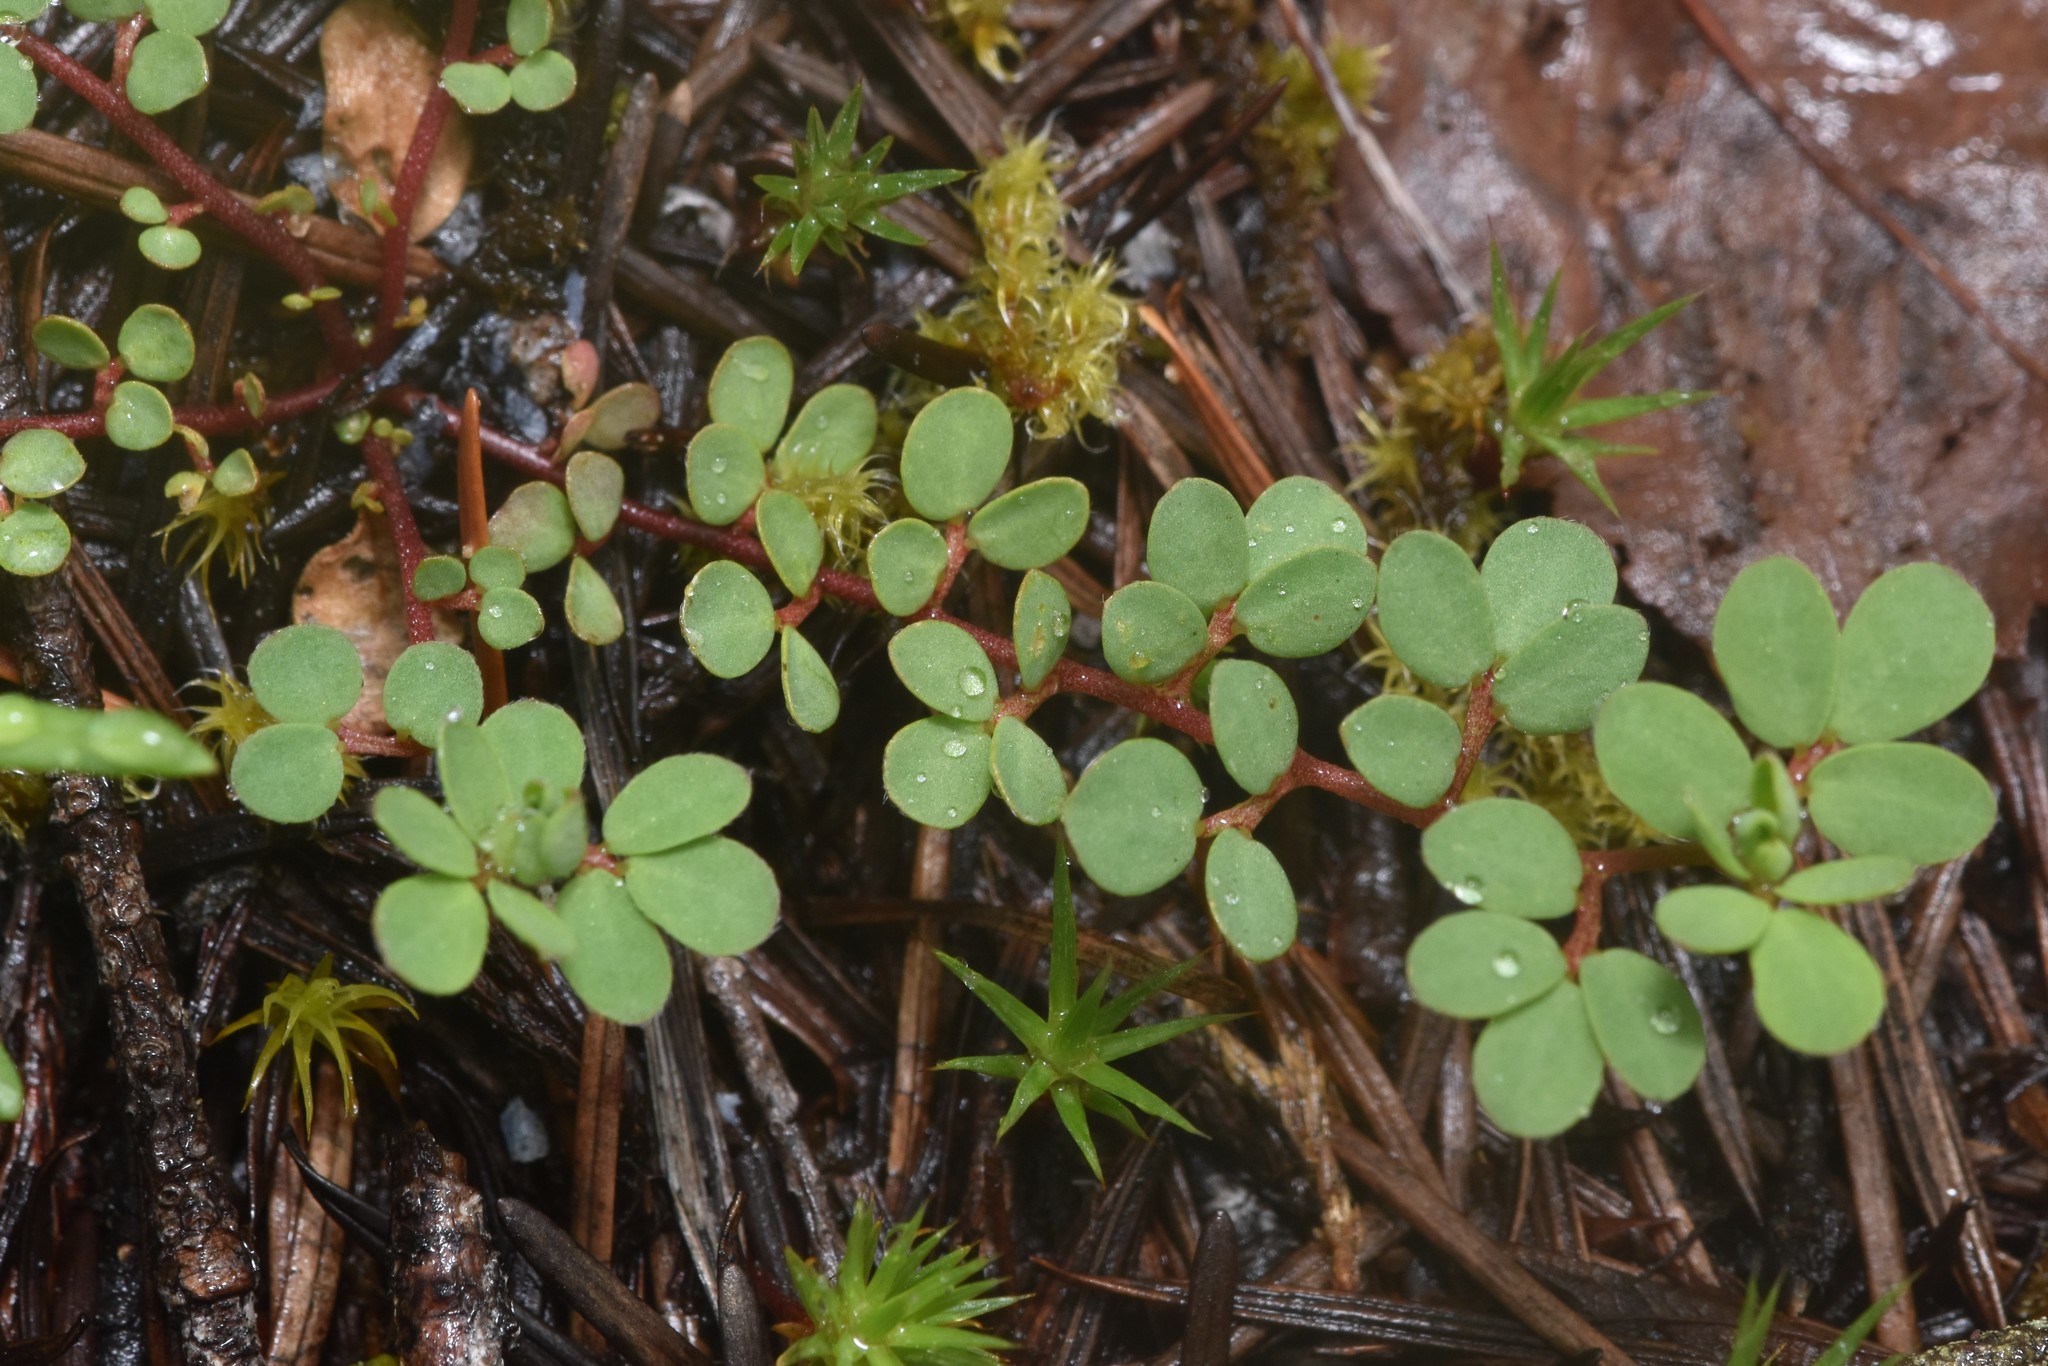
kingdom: Plantae
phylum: Tracheophyta
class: Magnoliopsida
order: Fabales
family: Fabaceae
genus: Acmispon
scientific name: Acmispon parviflorus
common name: Desert deer-vetch
